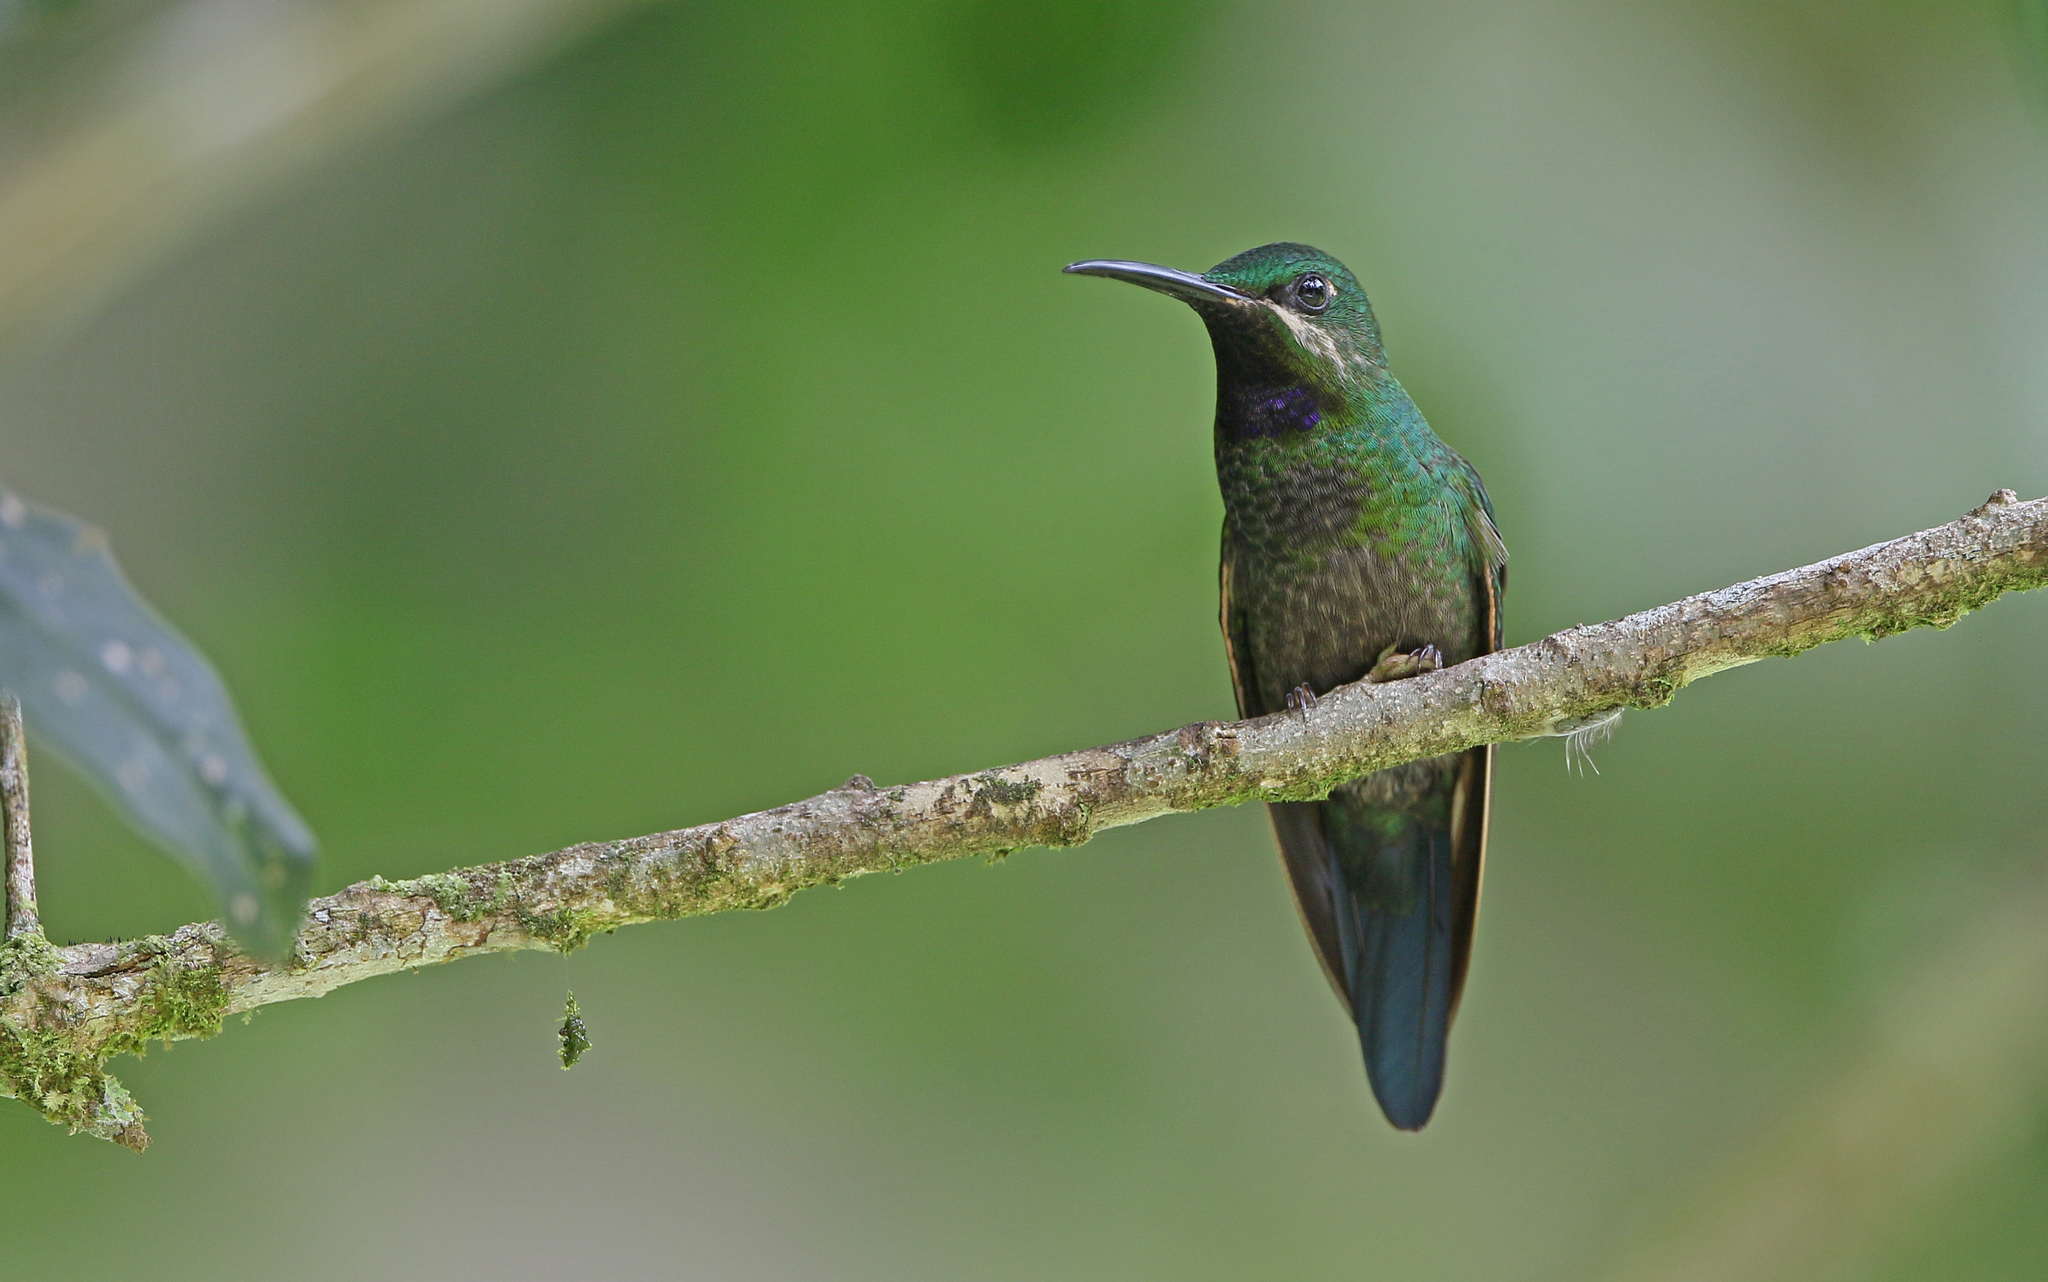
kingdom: Animalia
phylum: Chordata
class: Aves
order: Apodiformes
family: Trochilidae
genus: Heliodoxa
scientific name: Heliodoxa schreibersii
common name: Black-throated brilliant
